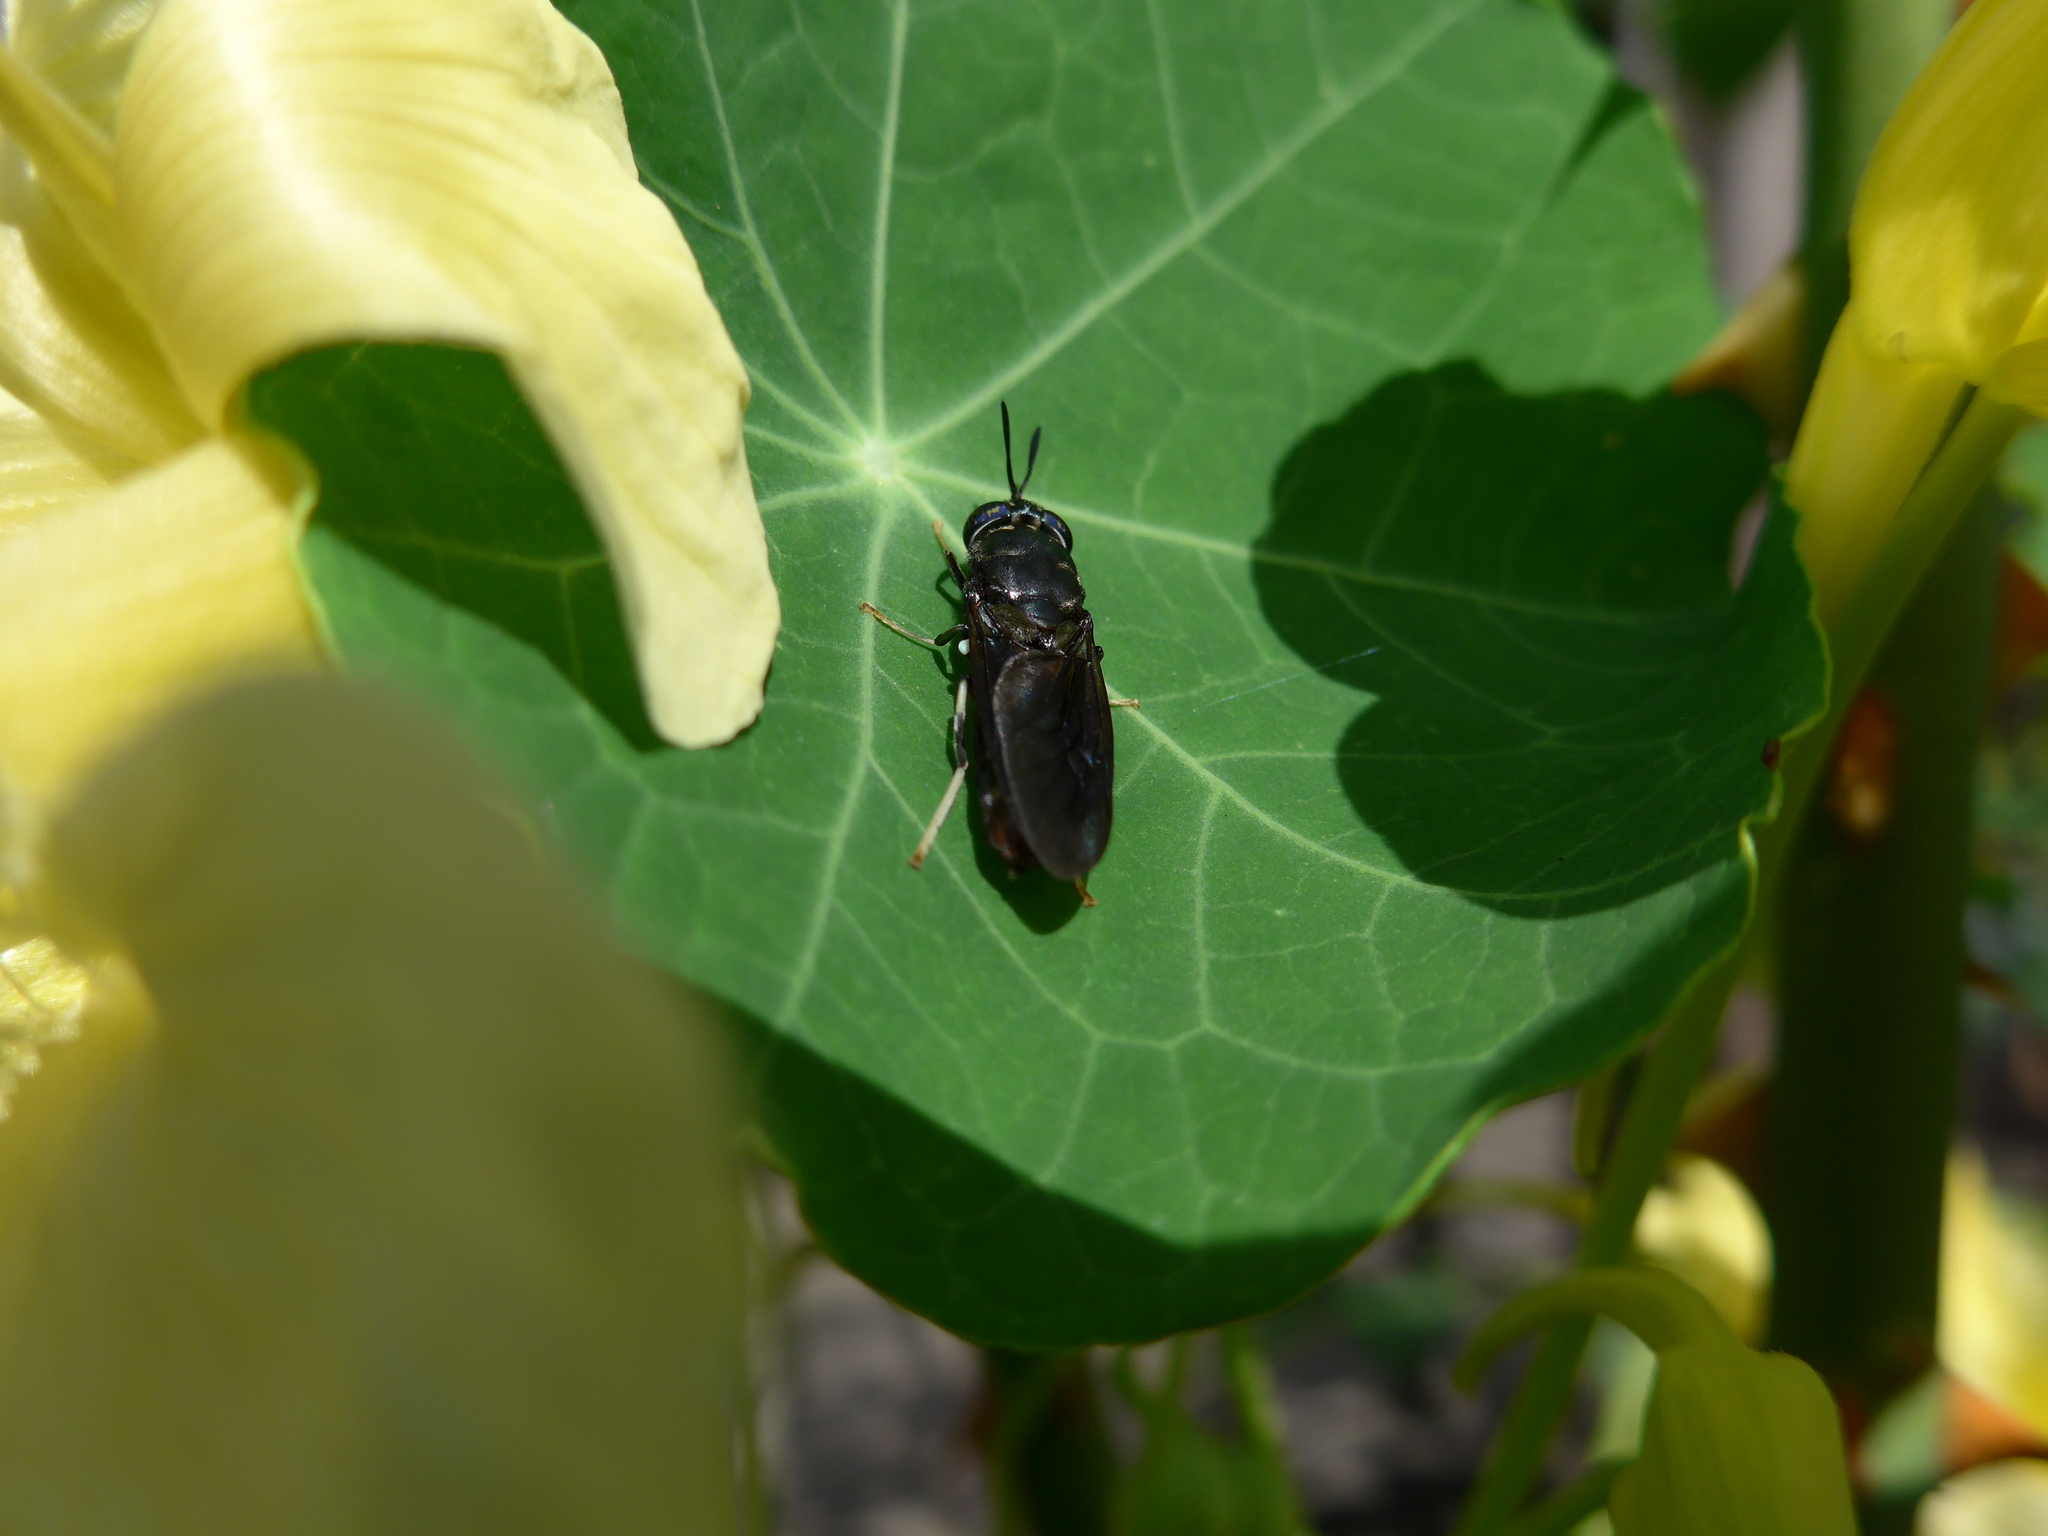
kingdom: Animalia
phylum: Arthropoda
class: Insecta
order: Diptera
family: Stratiomyidae
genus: Hermetia
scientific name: Hermetia illucens
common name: Black soldier fly
